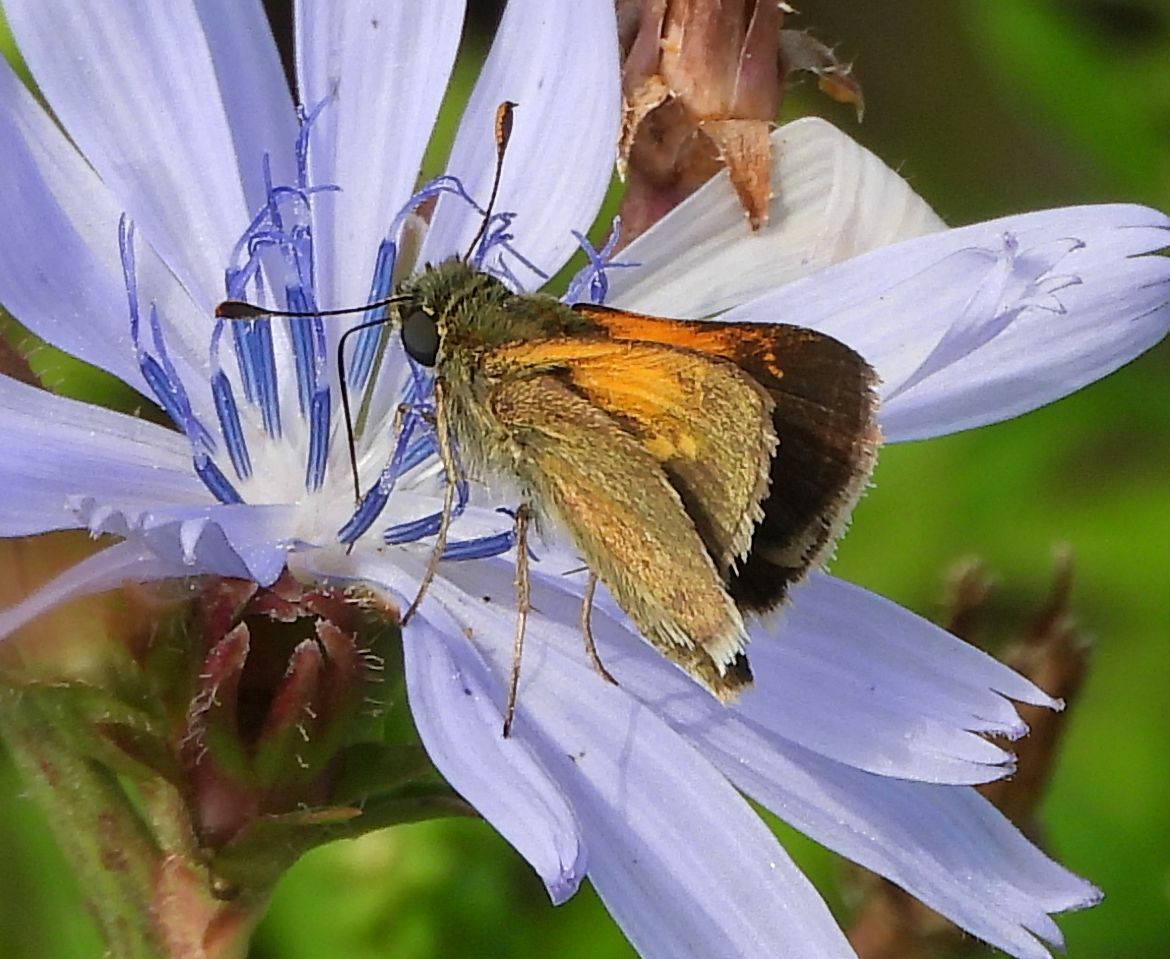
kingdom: Animalia
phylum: Arthropoda
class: Insecta
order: Lepidoptera
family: Hesperiidae
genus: Polites
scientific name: Polites themistocles
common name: Tawny-edged skipper
